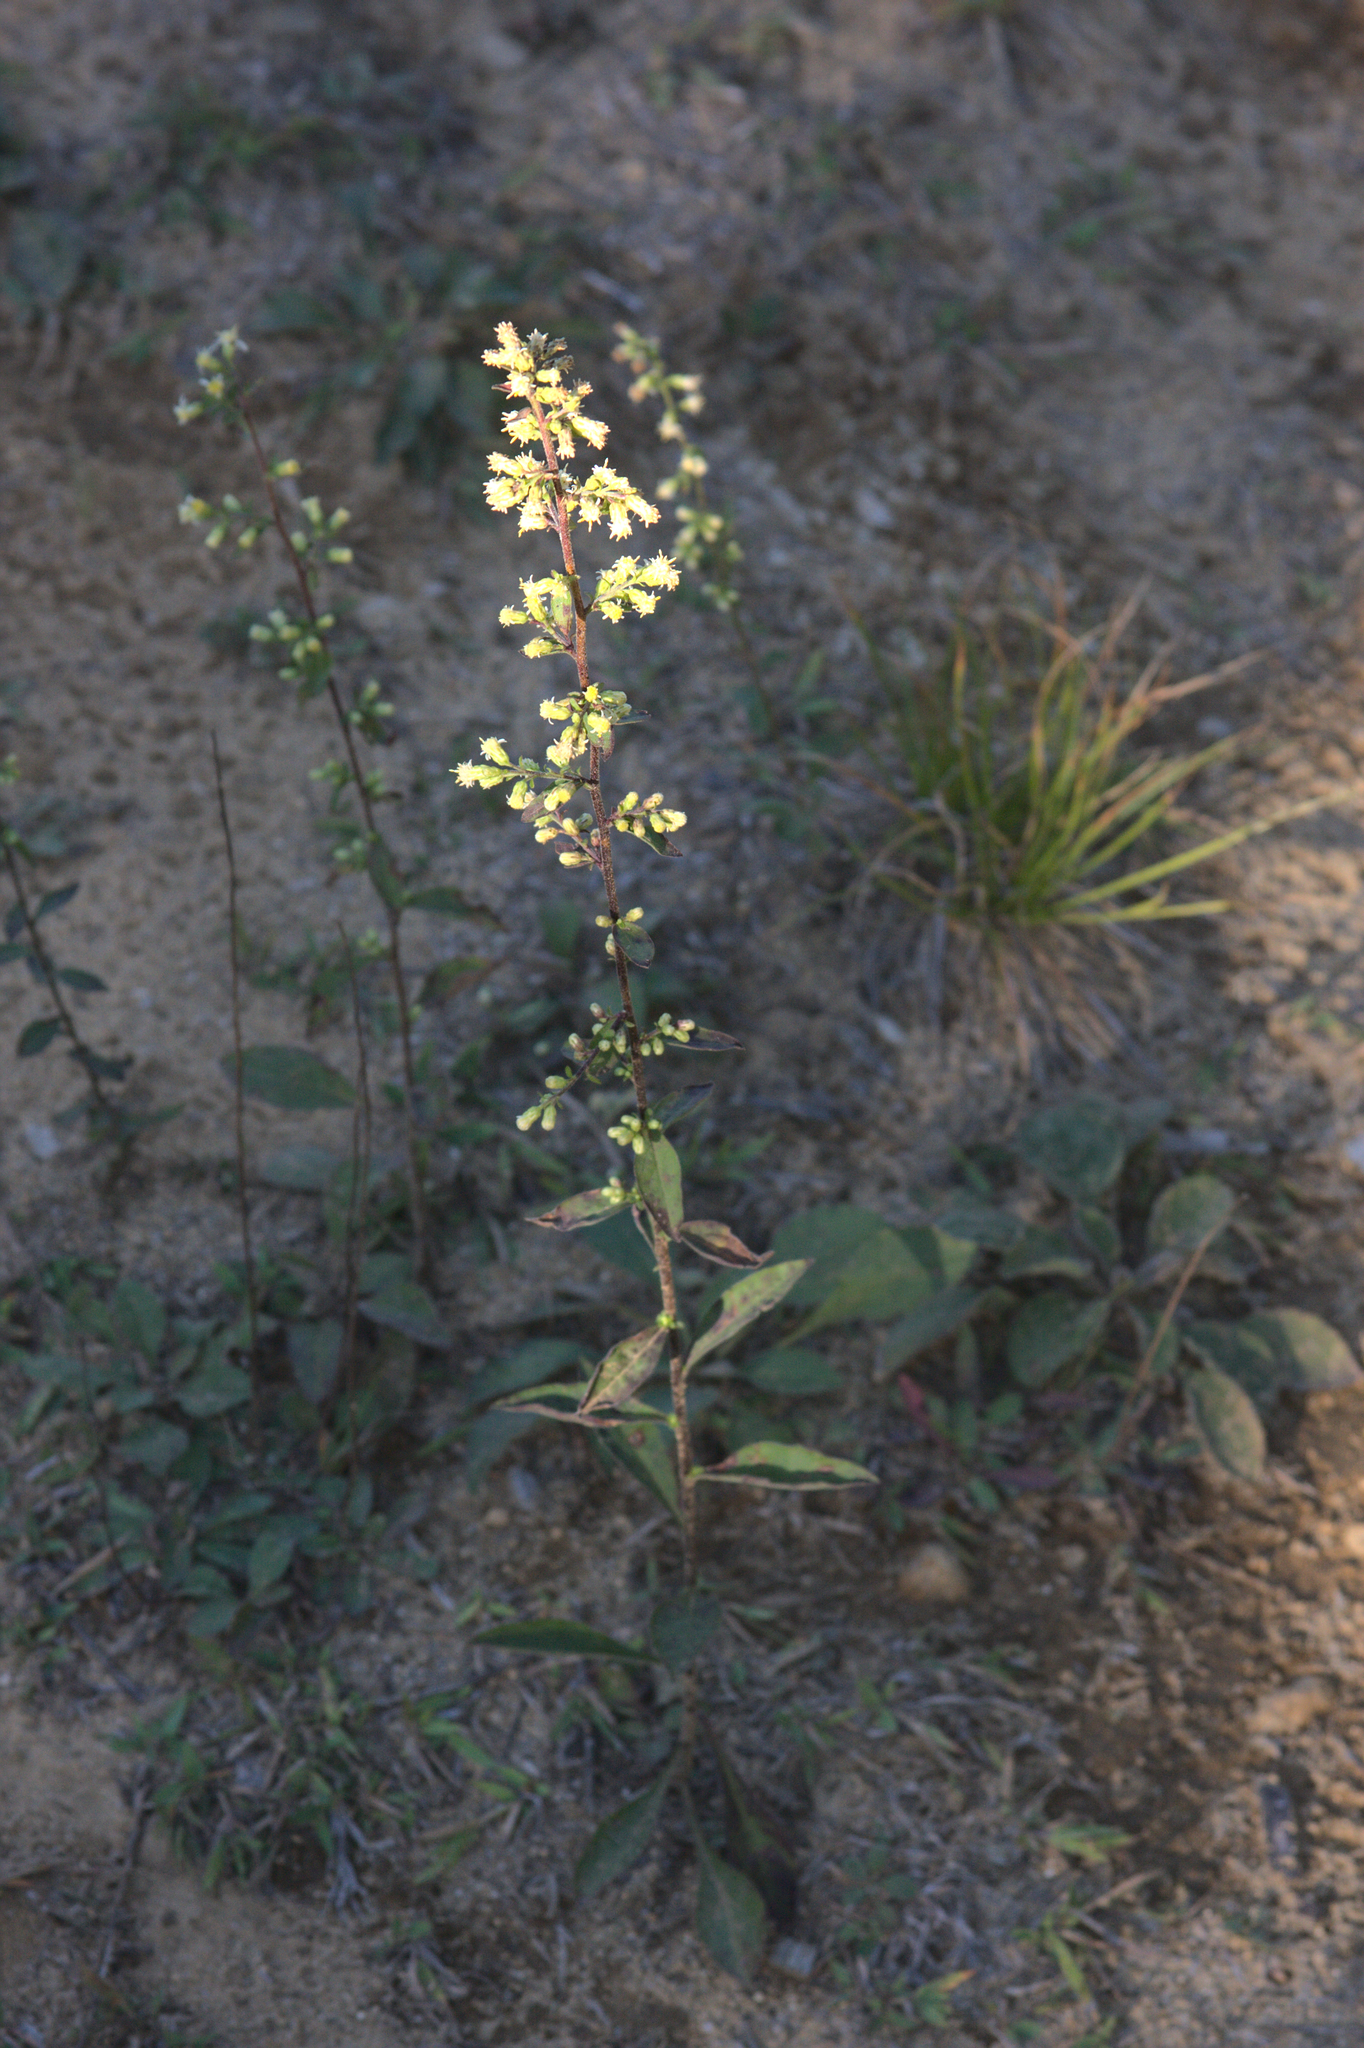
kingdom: Plantae
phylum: Tracheophyta
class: Magnoliopsida
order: Asterales
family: Asteraceae
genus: Solidago
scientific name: Solidago bicolor
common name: Silverrod
